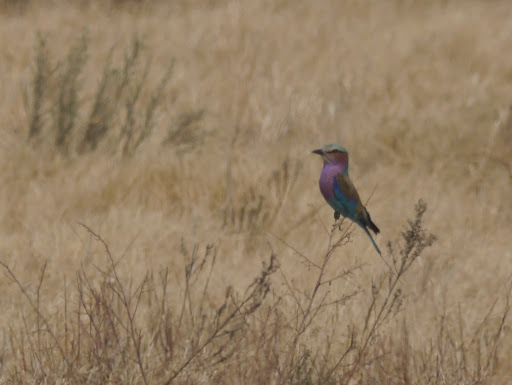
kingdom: Animalia
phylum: Chordata
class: Aves
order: Coraciiformes
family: Coraciidae
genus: Coracias
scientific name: Coracias caudatus
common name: Lilac-breasted roller
